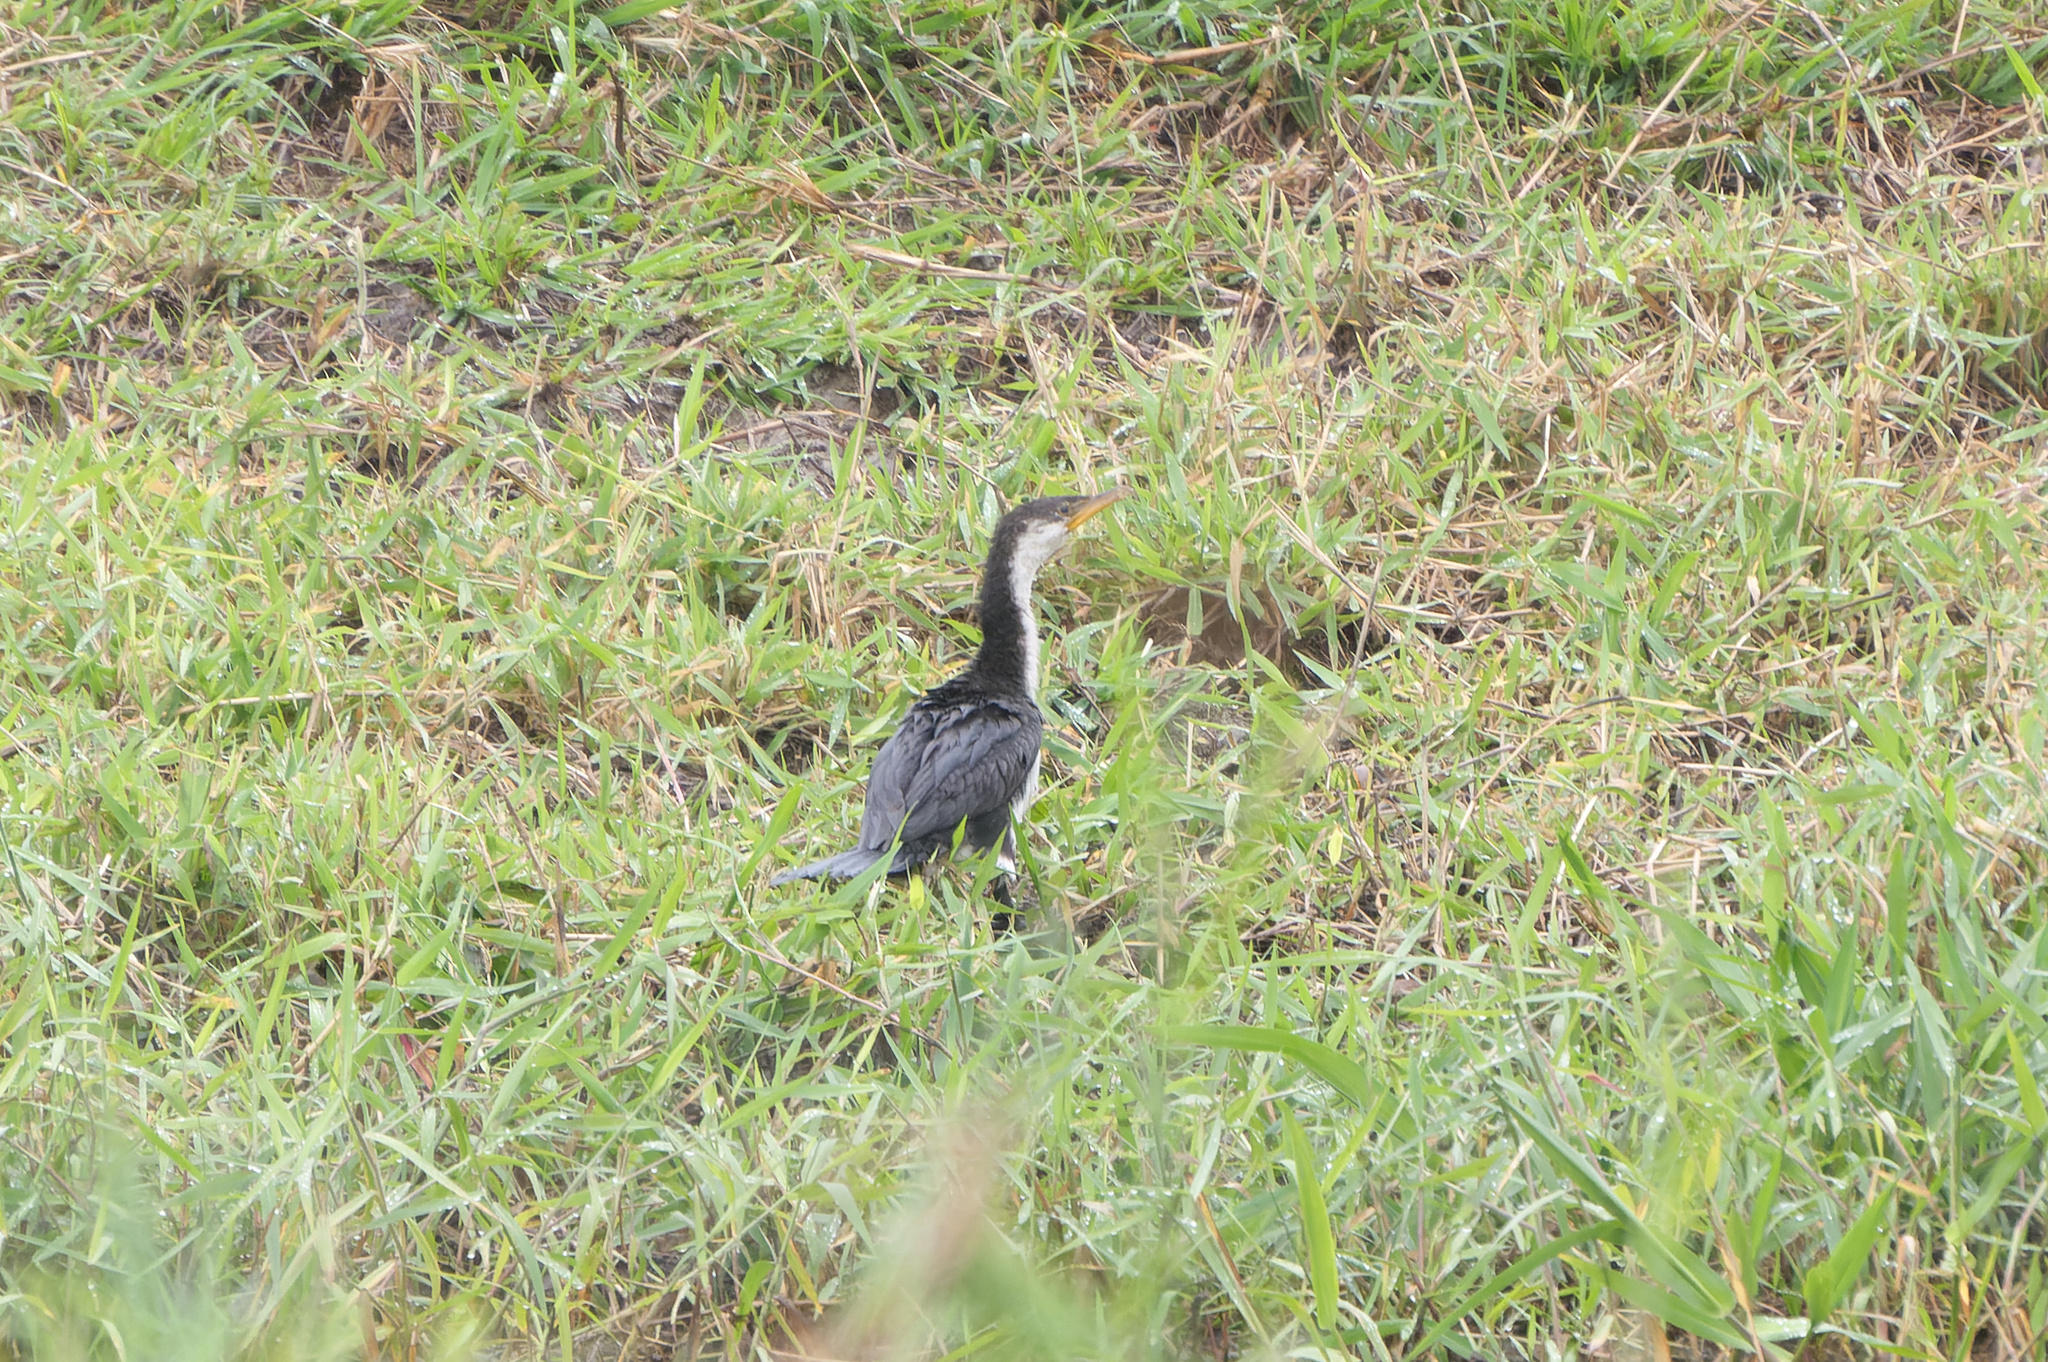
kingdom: Animalia
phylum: Chordata
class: Aves
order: Suliformes
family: Phalacrocoracidae
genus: Microcarbo
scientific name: Microcarbo melanoleucos
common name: Little pied cormorant
